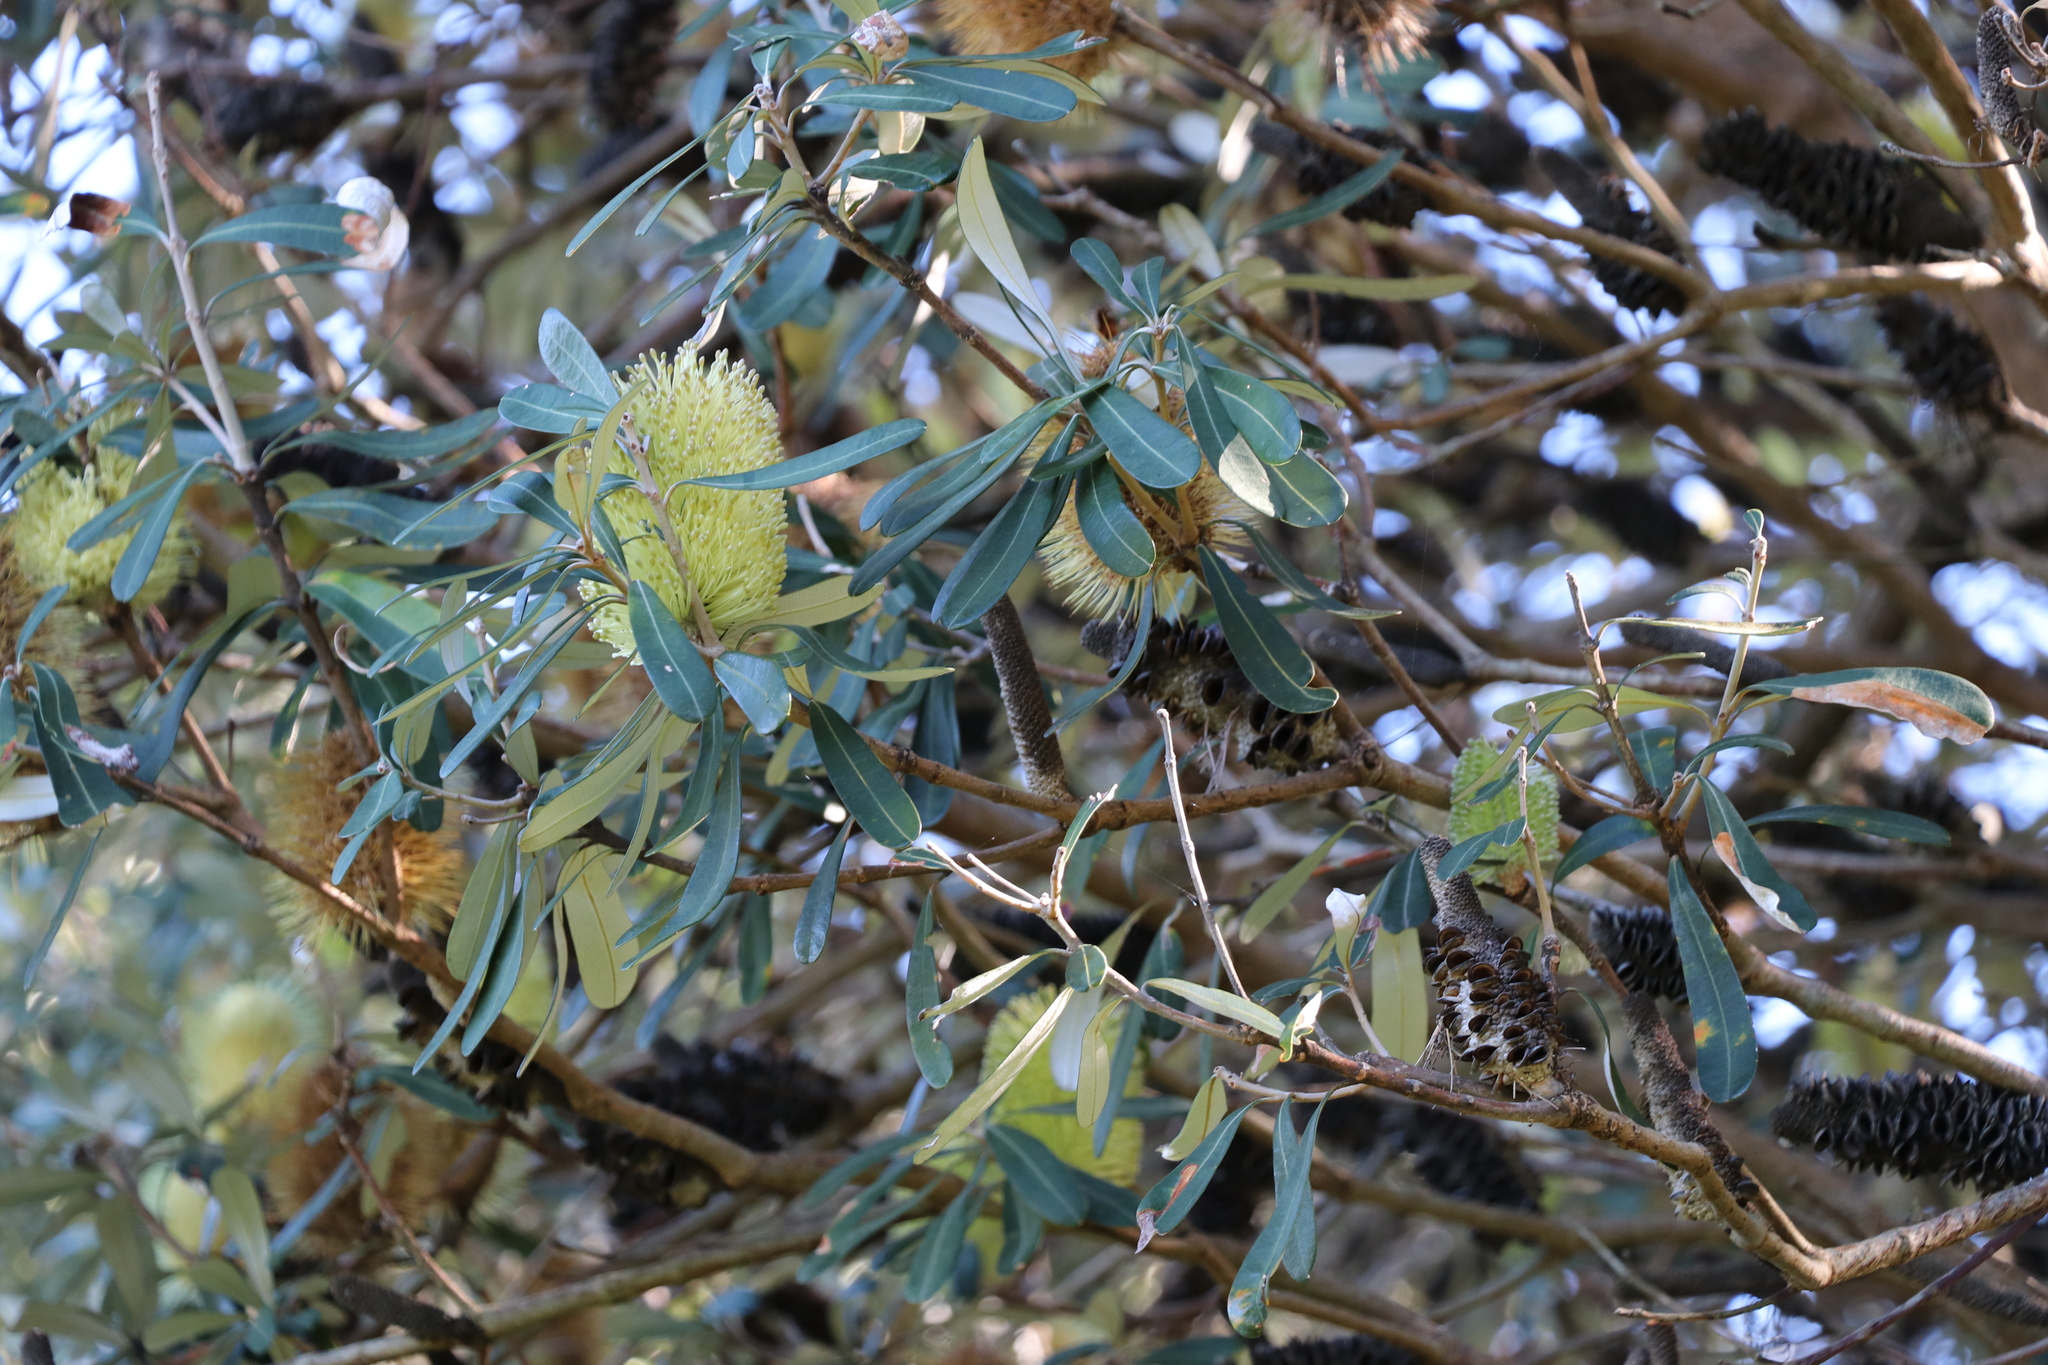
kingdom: Plantae
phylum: Tracheophyta
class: Magnoliopsida
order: Proteales
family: Proteaceae
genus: Banksia
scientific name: Banksia integrifolia
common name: White-honeysuckle
